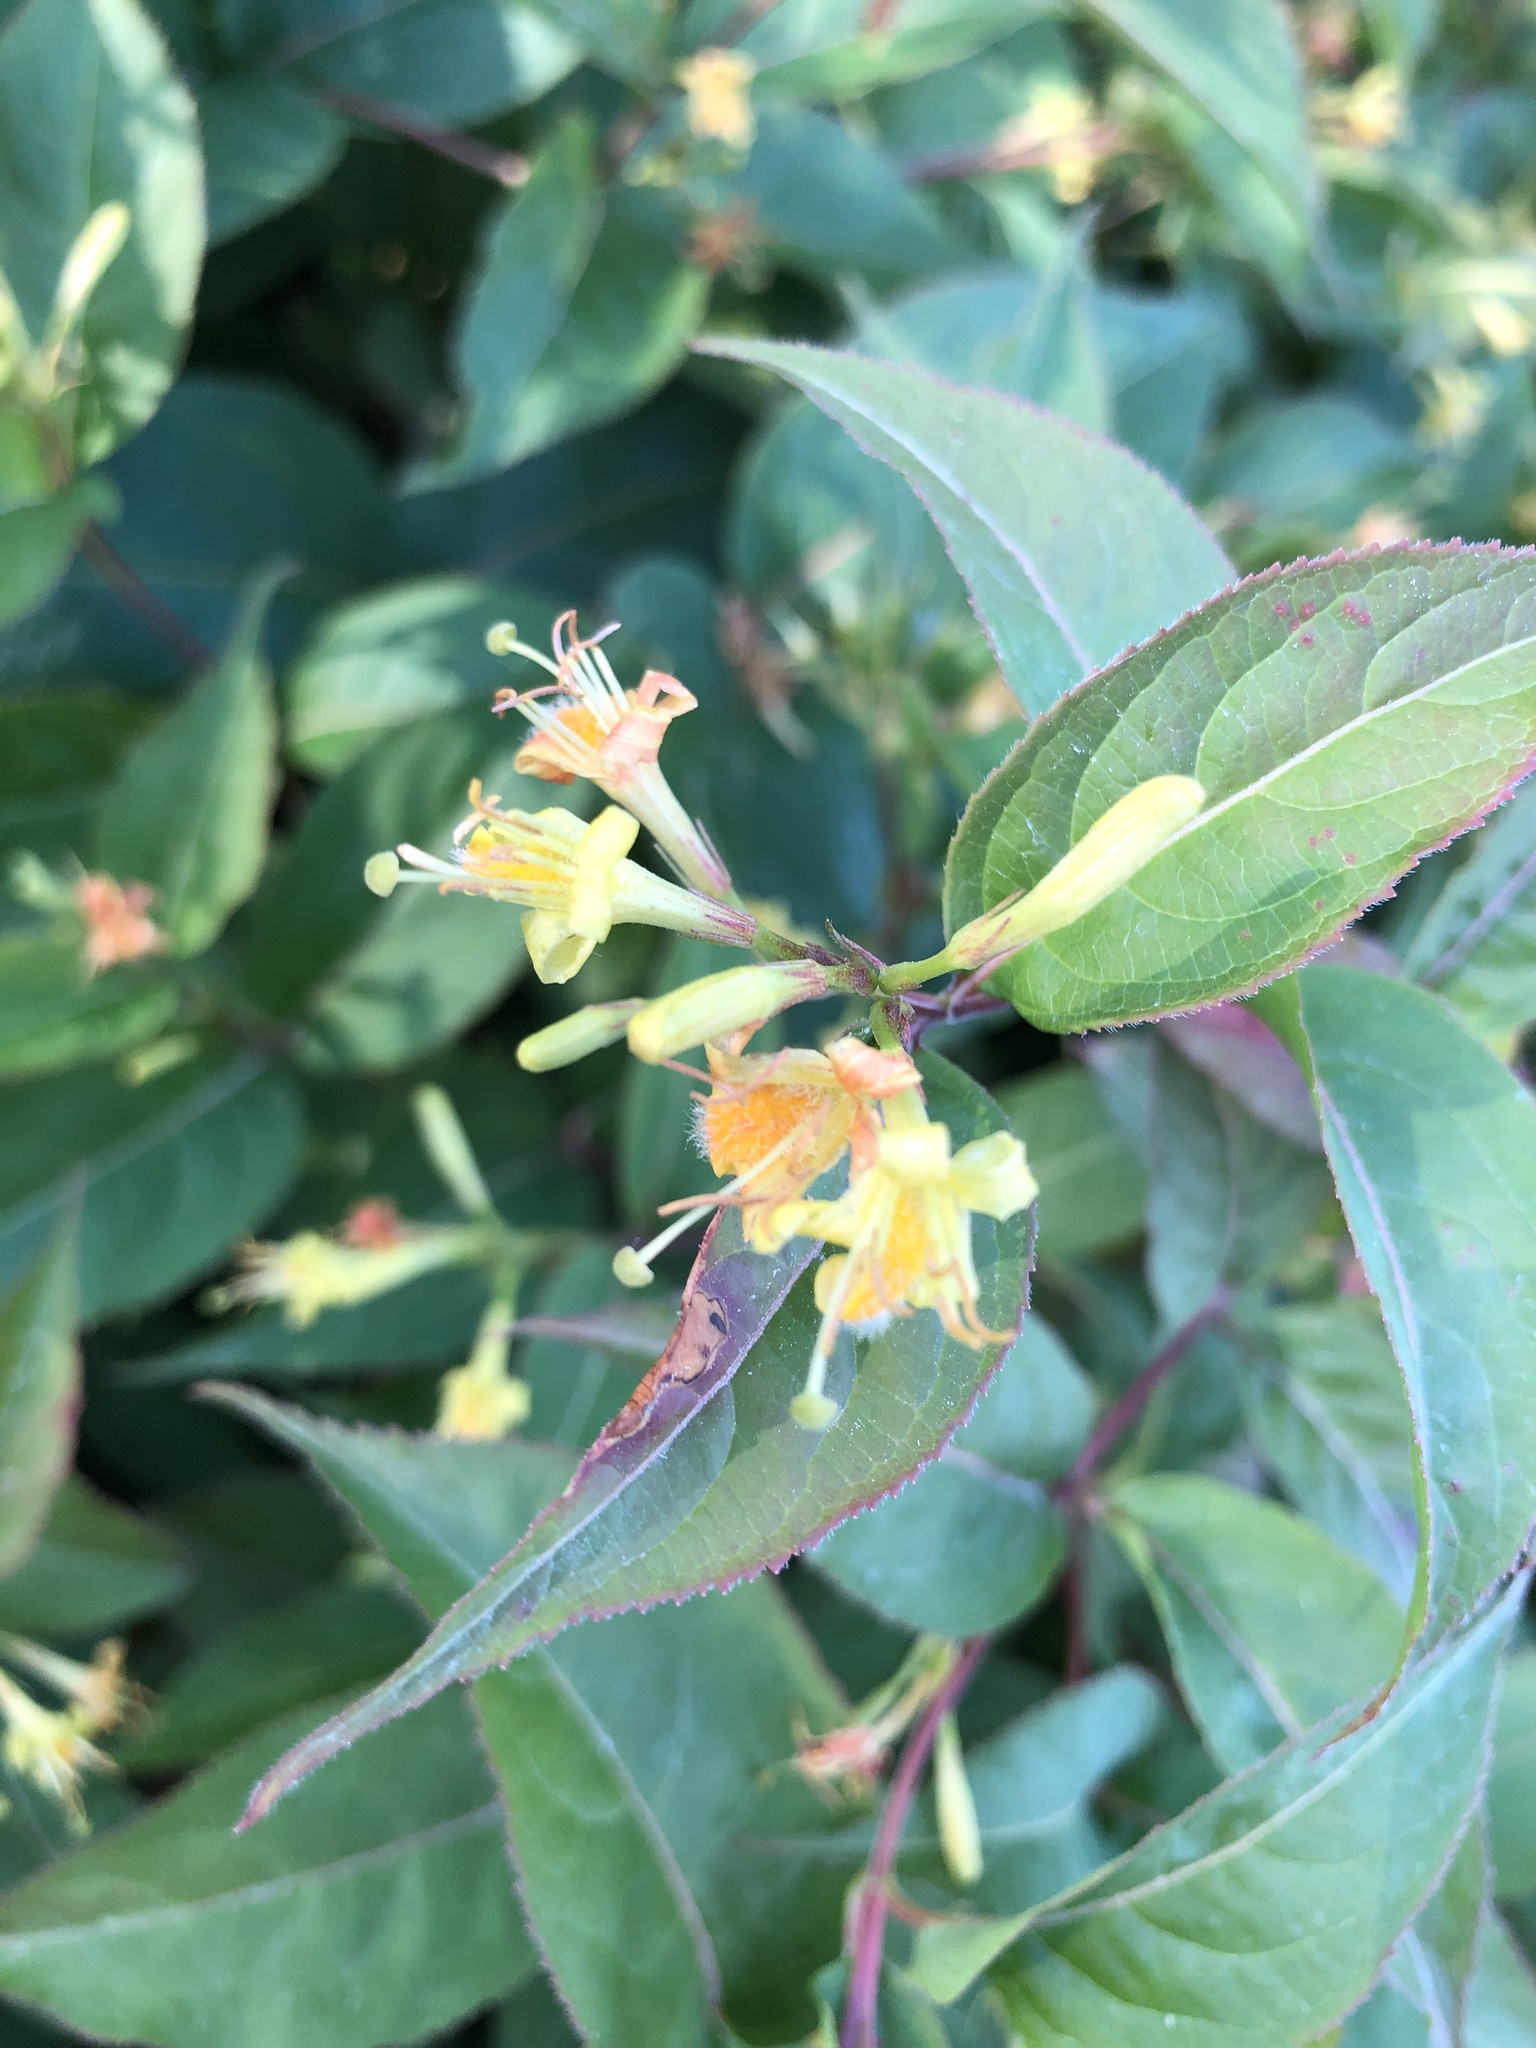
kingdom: Plantae
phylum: Tracheophyta
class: Magnoliopsida
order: Dipsacales
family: Caprifoliaceae
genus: Diervilla
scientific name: Diervilla lonicera
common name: Bush-honeysuckle
